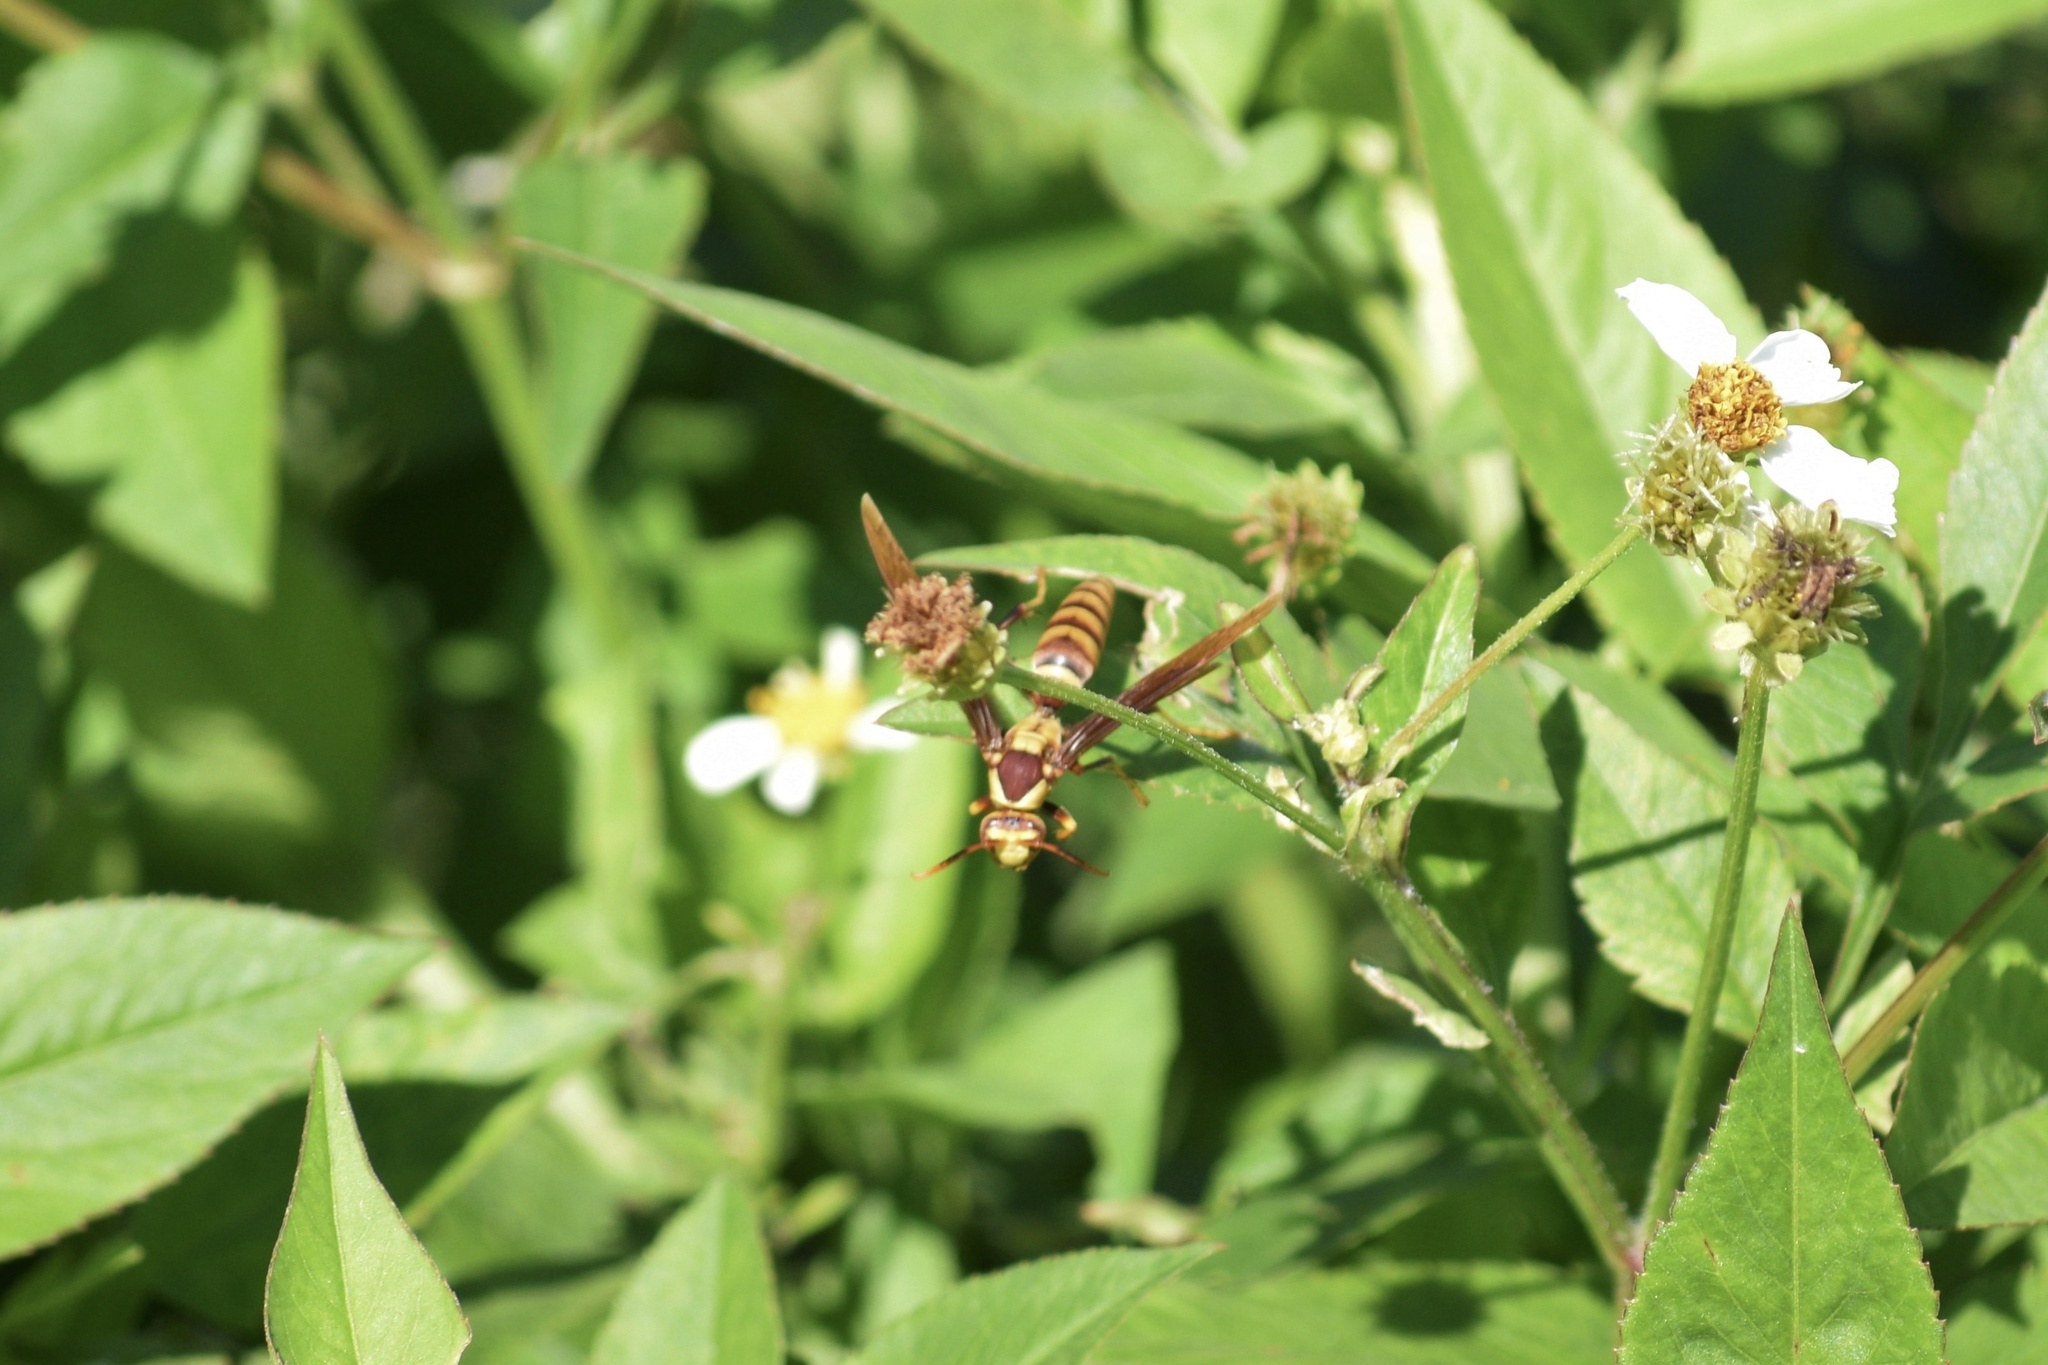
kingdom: Animalia
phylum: Arthropoda
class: Insecta
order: Hymenoptera
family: Eumenidae
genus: Polistes
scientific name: Polistes major
